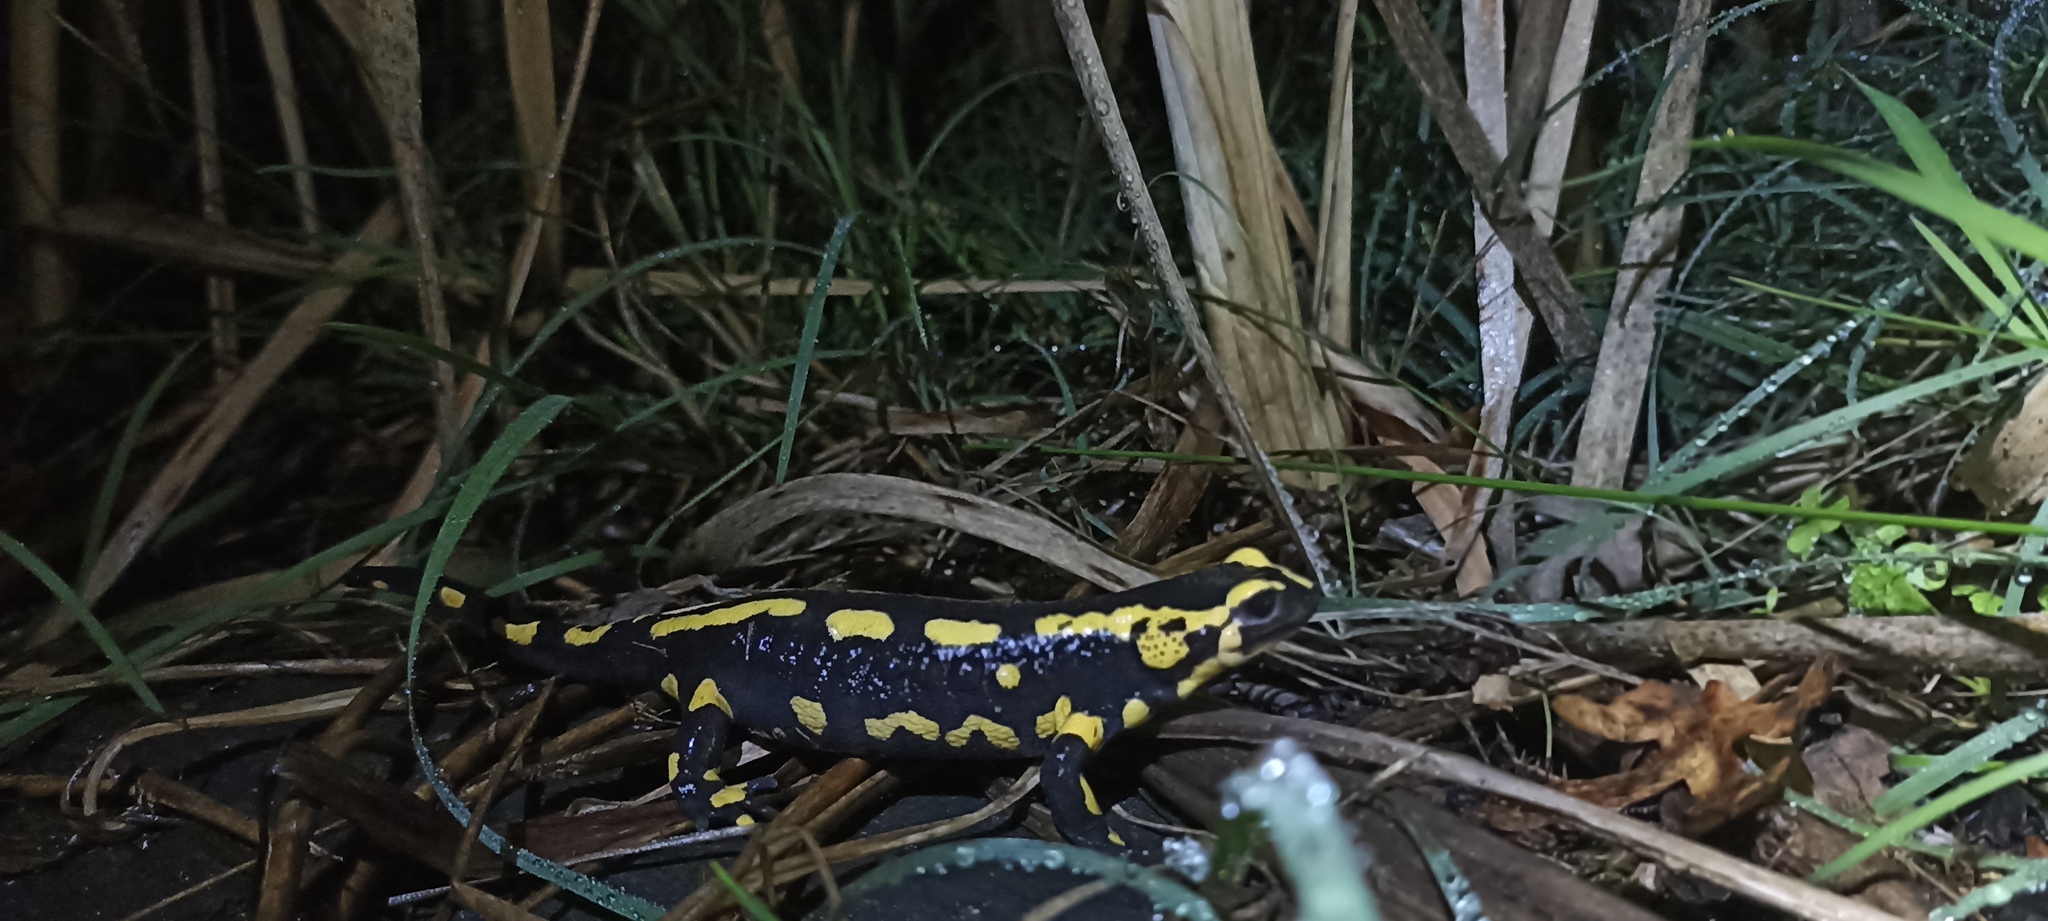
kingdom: Animalia
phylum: Chordata
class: Amphibia
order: Caudata
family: Salamandridae
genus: Salamandra
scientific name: Salamandra salamandra
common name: Fire salamander
